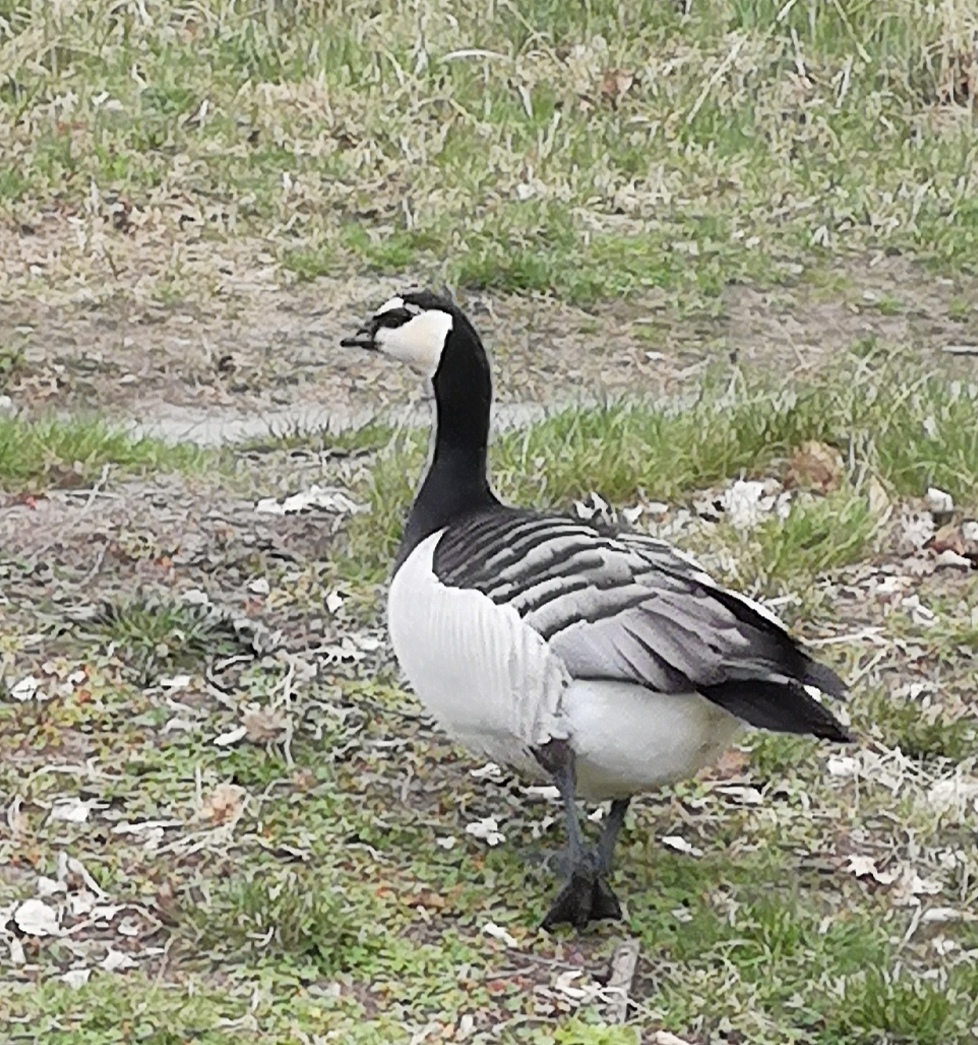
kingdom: Animalia
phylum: Chordata
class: Aves
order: Anseriformes
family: Anatidae
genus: Branta
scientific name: Branta leucopsis
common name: Barnacle goose
